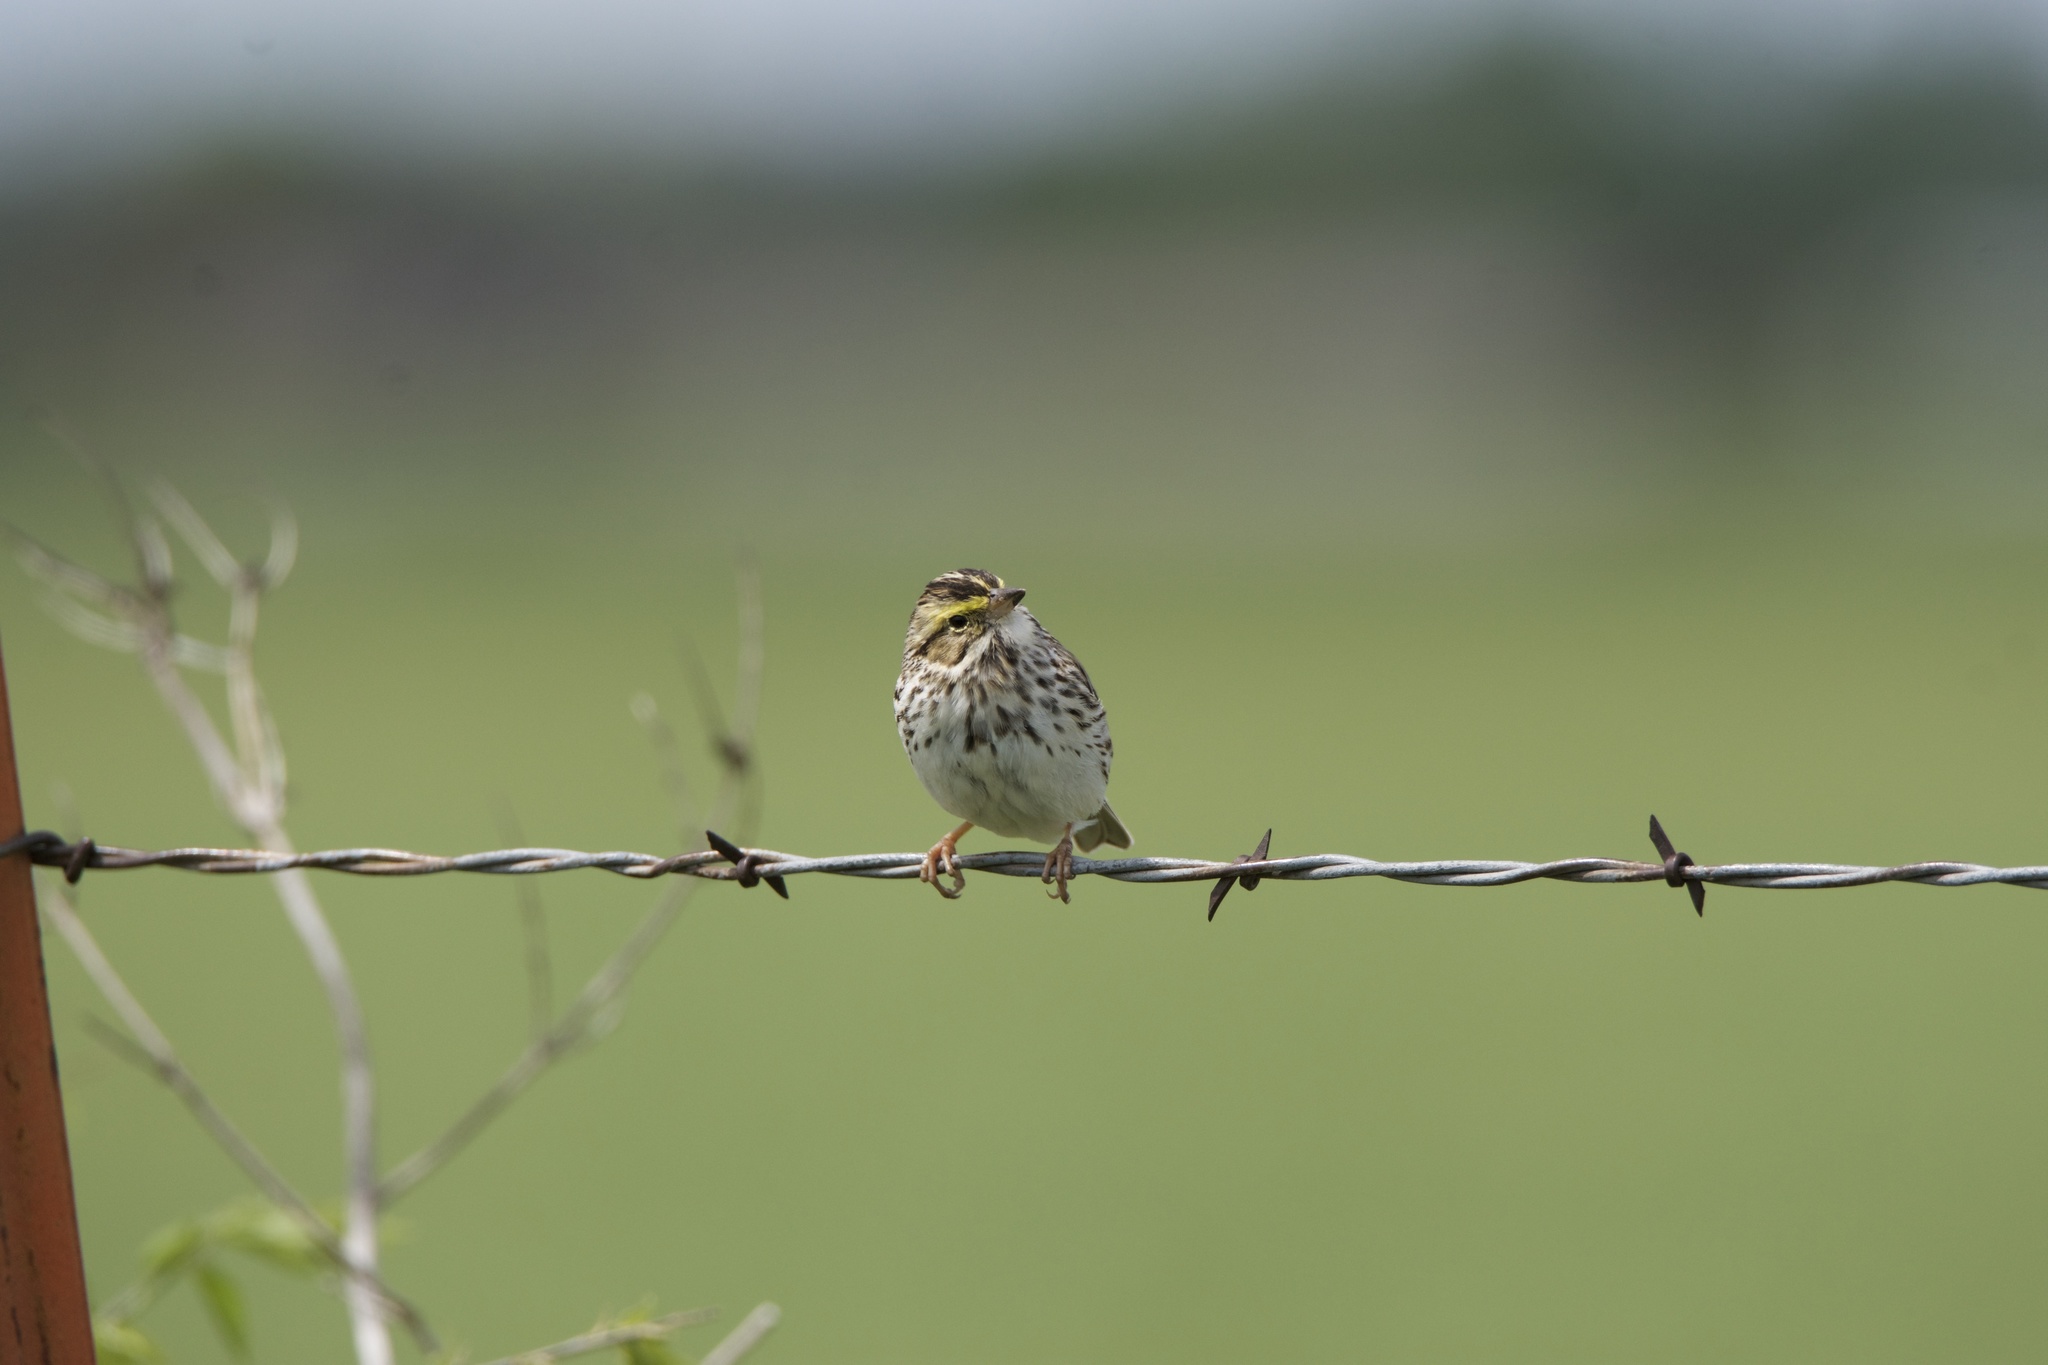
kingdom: Animalia
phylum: Chordata
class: Aves
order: Passeriformes
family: Passerellidae
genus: Passerculus
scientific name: Passerculus sandwichensis
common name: Savannah sparrow
